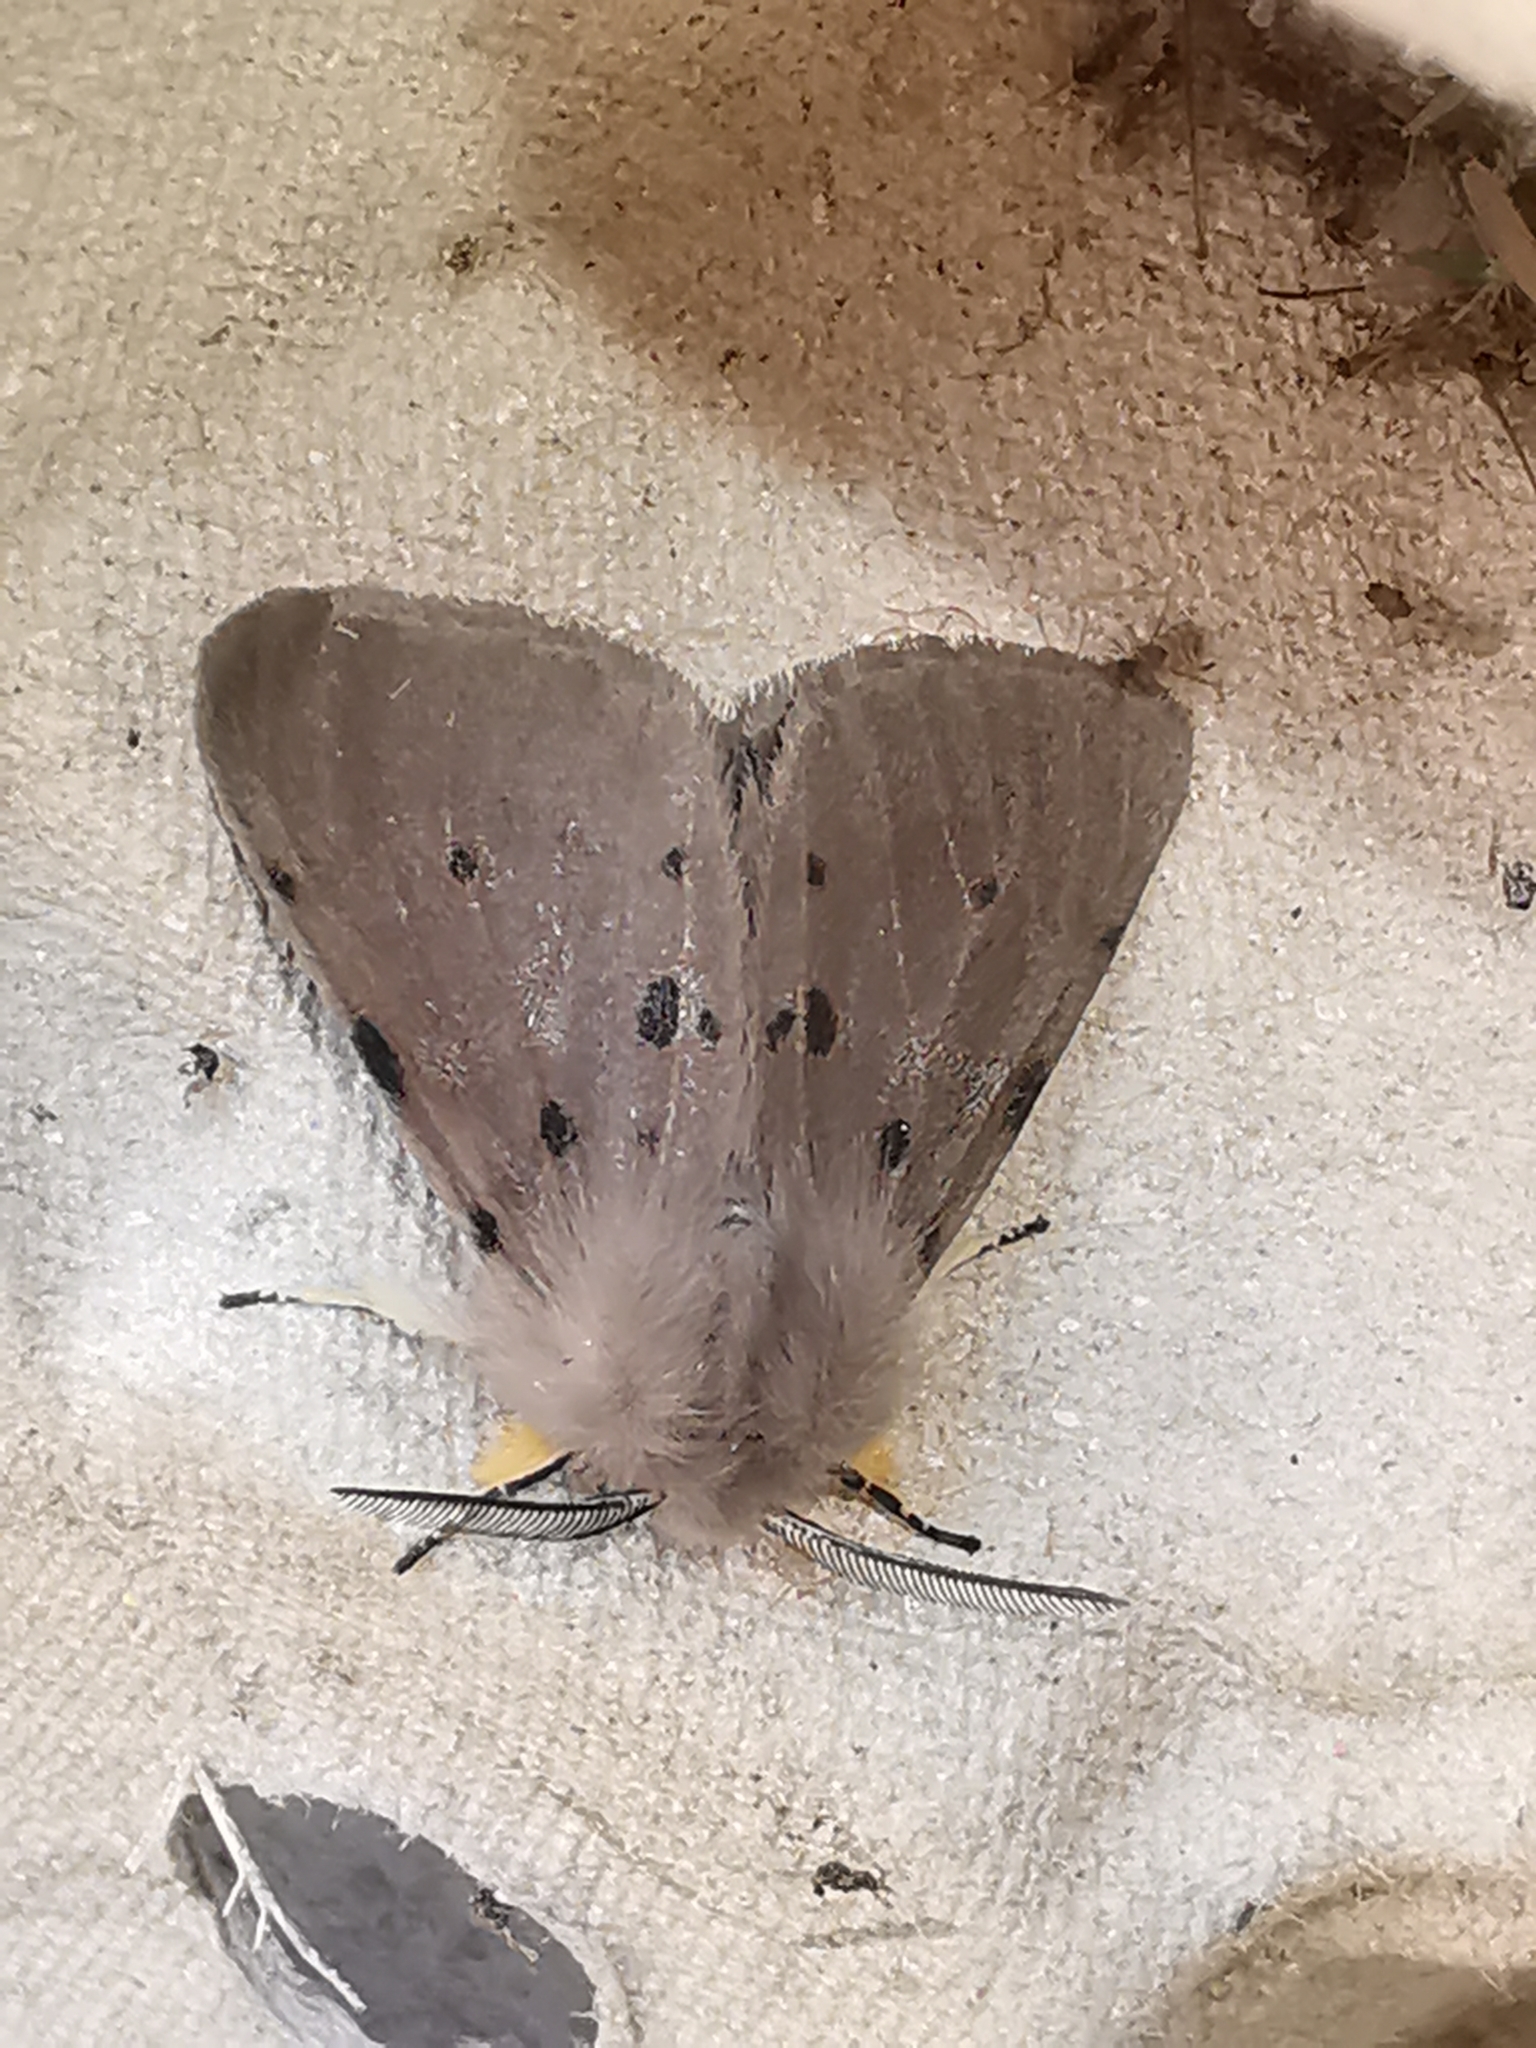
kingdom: Animalia
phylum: Arthropoda
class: Insecta
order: Lepidoptera
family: Erebidae
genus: Diaphora
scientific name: Diaphora mendica
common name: Muslin moth
